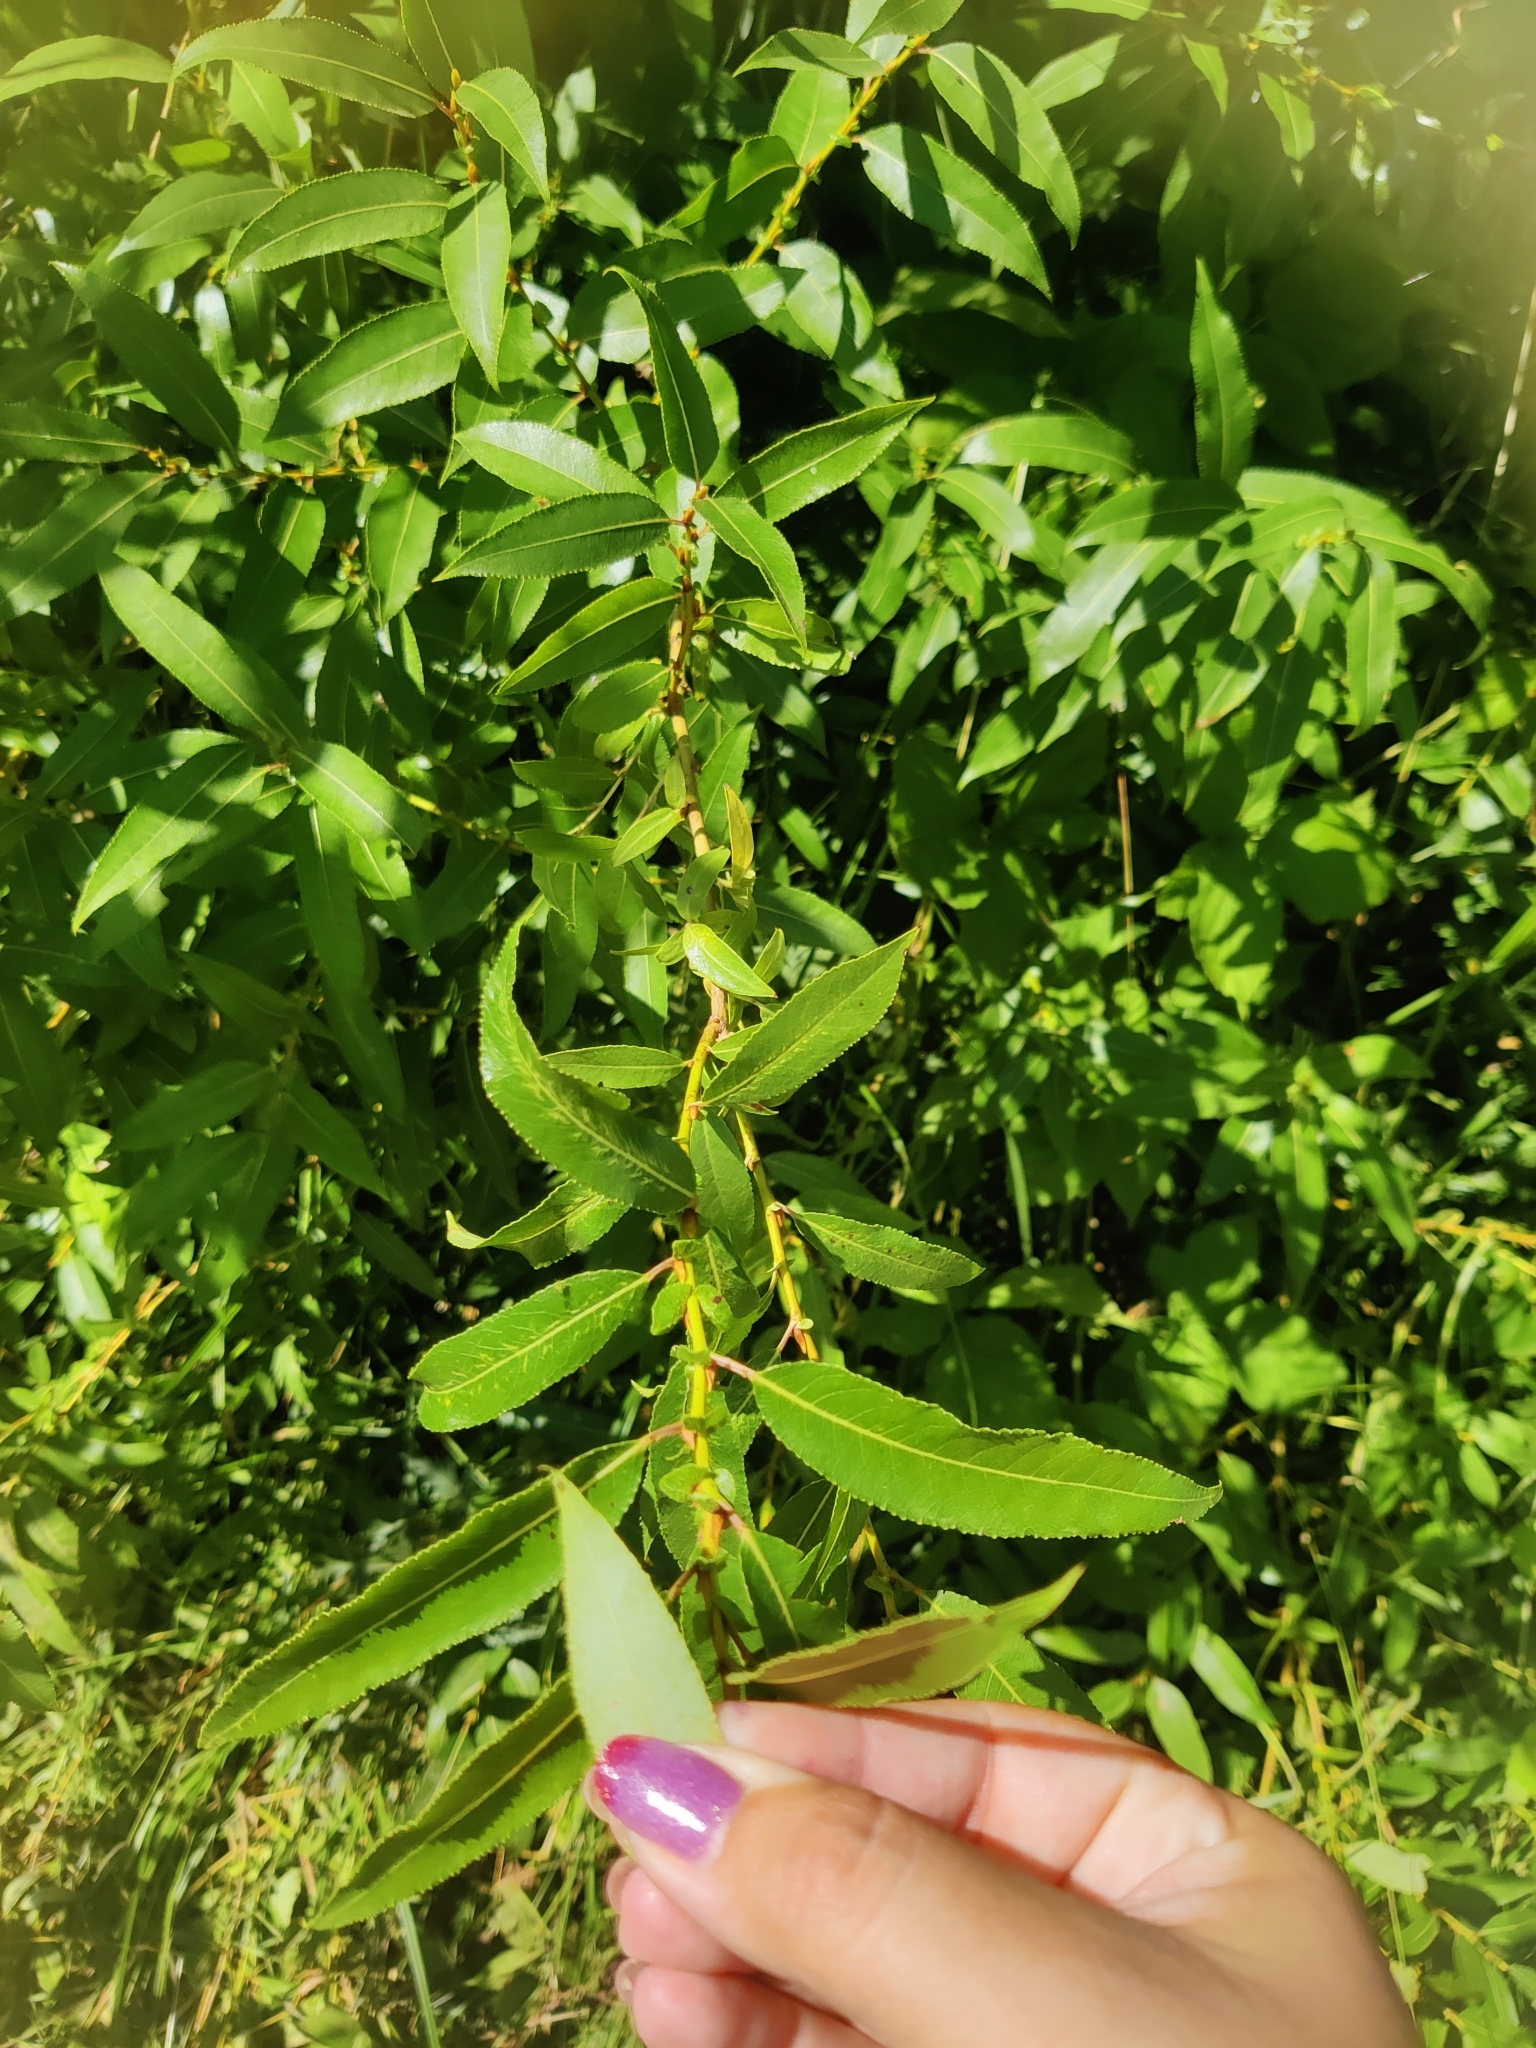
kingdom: Plantae
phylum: Tracheophyta
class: Magnoliopsida
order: Malpighiales
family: Salicaceae
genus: Salix
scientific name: Salix triandra
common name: Almond willow
